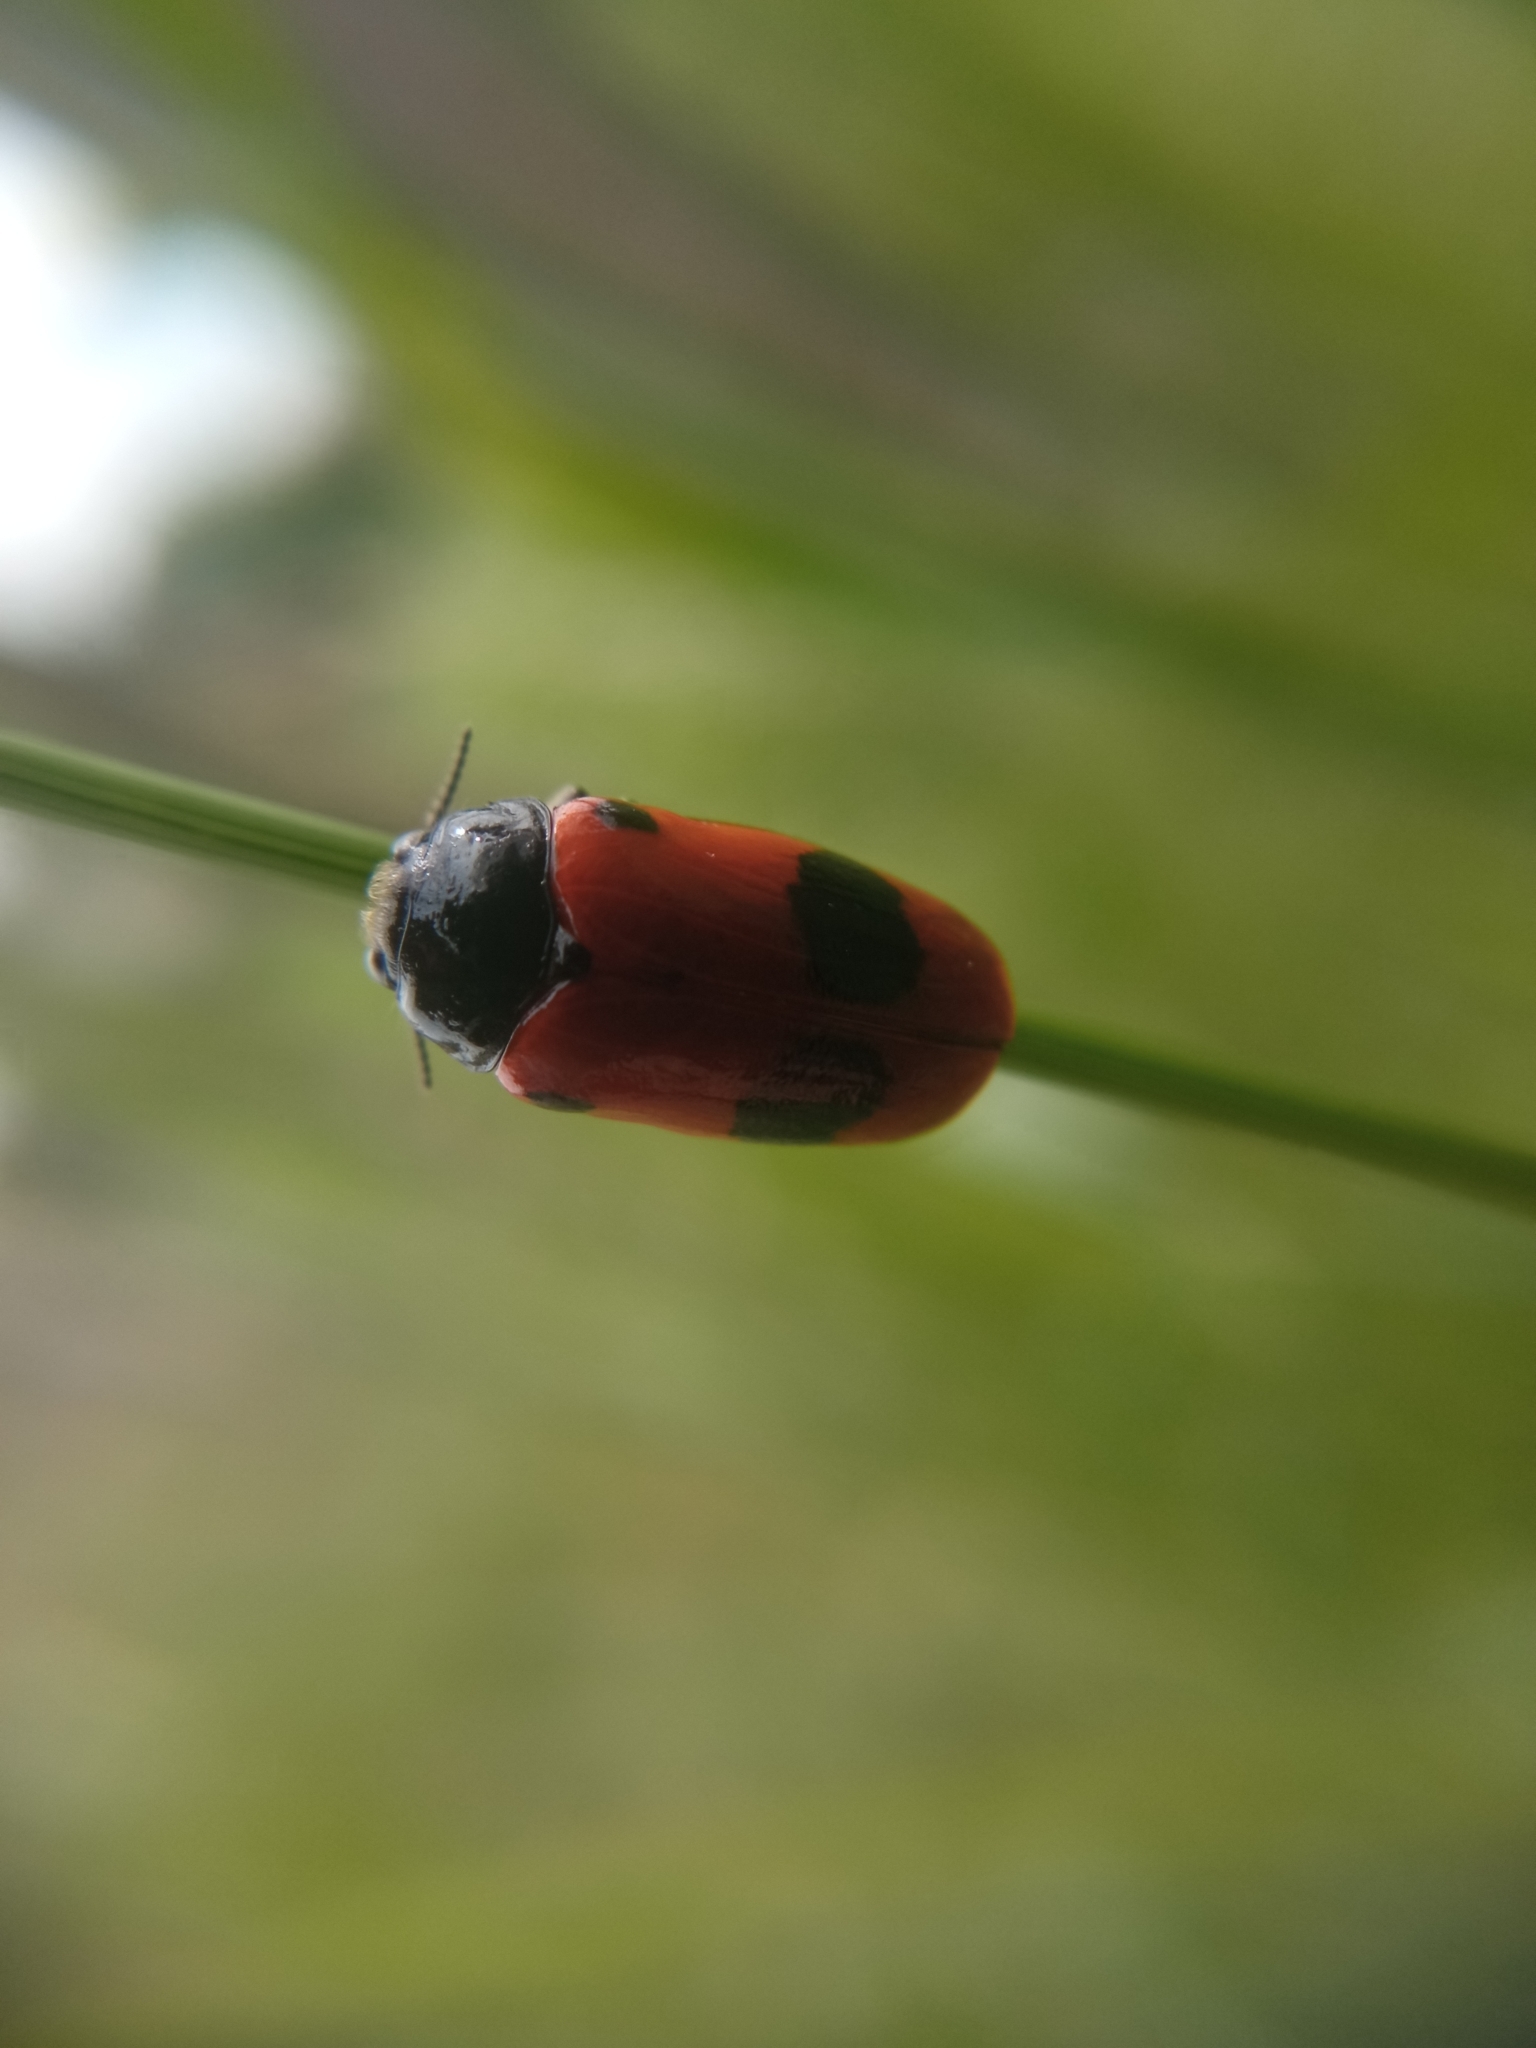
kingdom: Animalia
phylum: Arthropoda
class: Insecta
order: Coleoptera
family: Chrysomelidae
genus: Clytra
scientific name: Clytra laeviuscula
